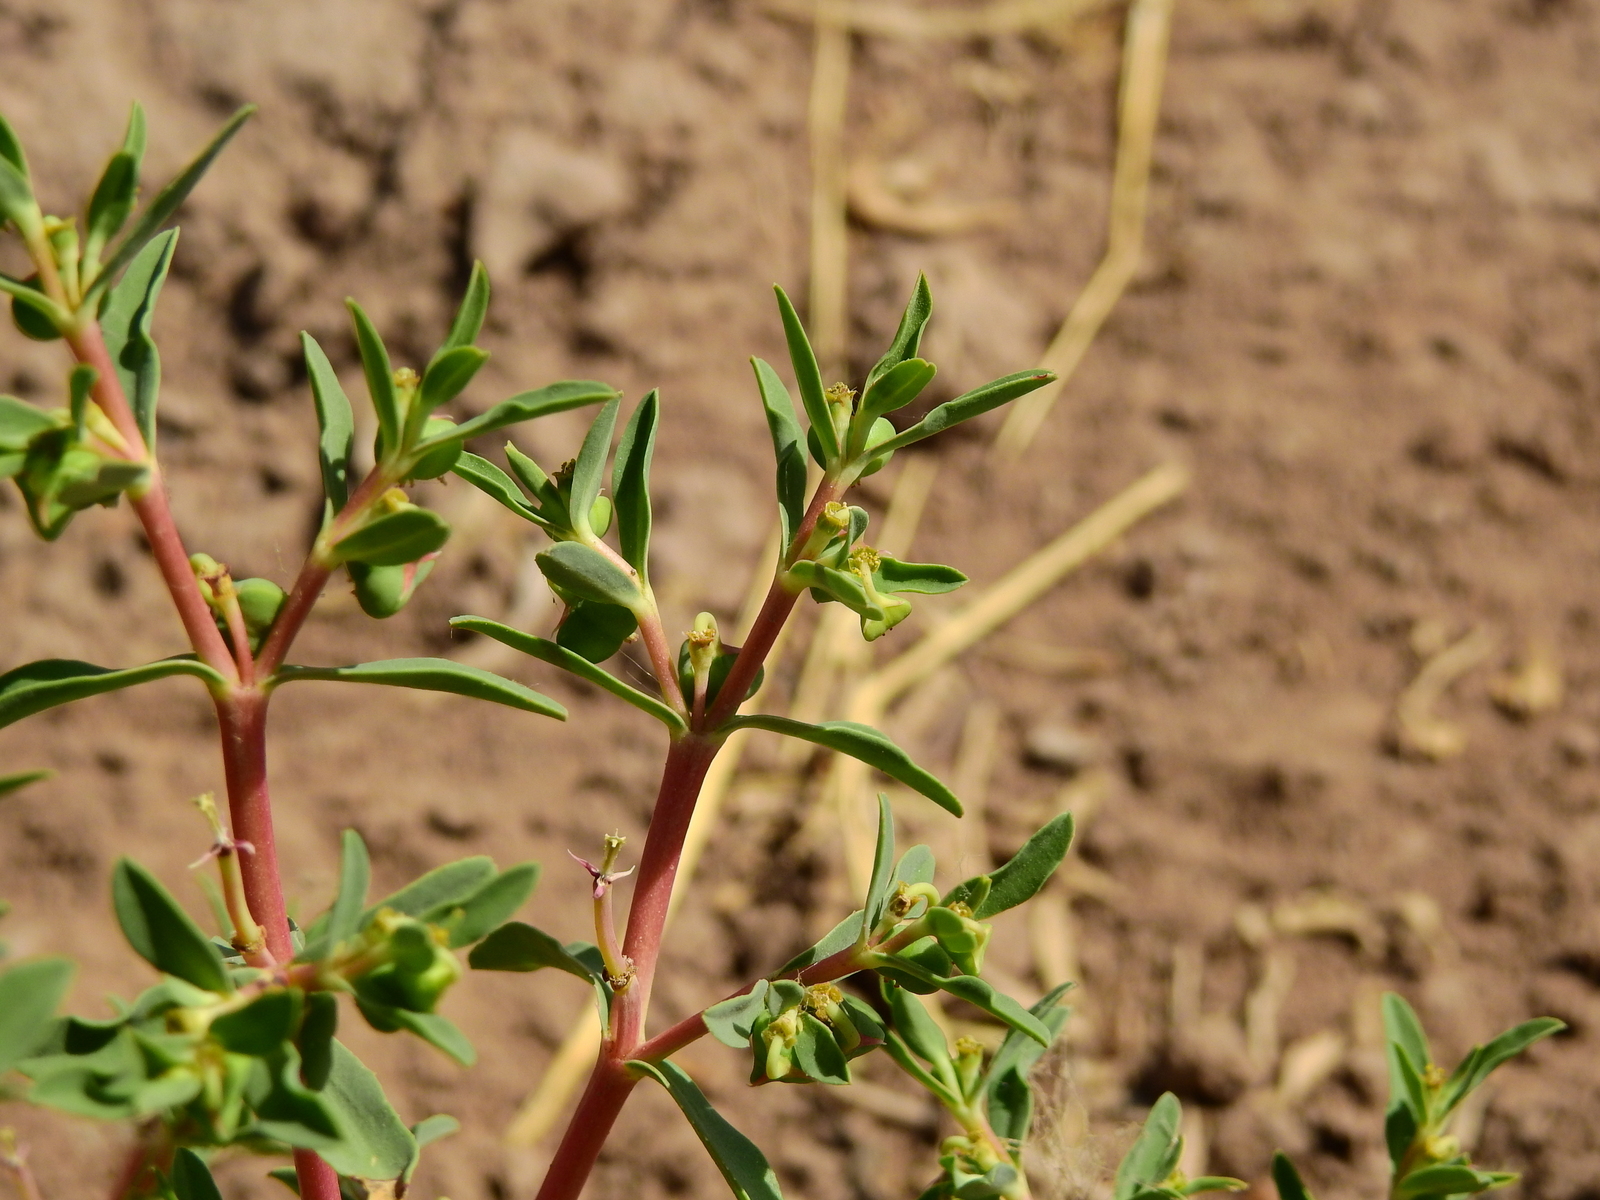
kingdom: Plantae
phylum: Tracheophyta
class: Magnoliopsida
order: Malpighiales
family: Euphorbiaceae
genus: Euphorbia
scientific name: Euphorbia collina
